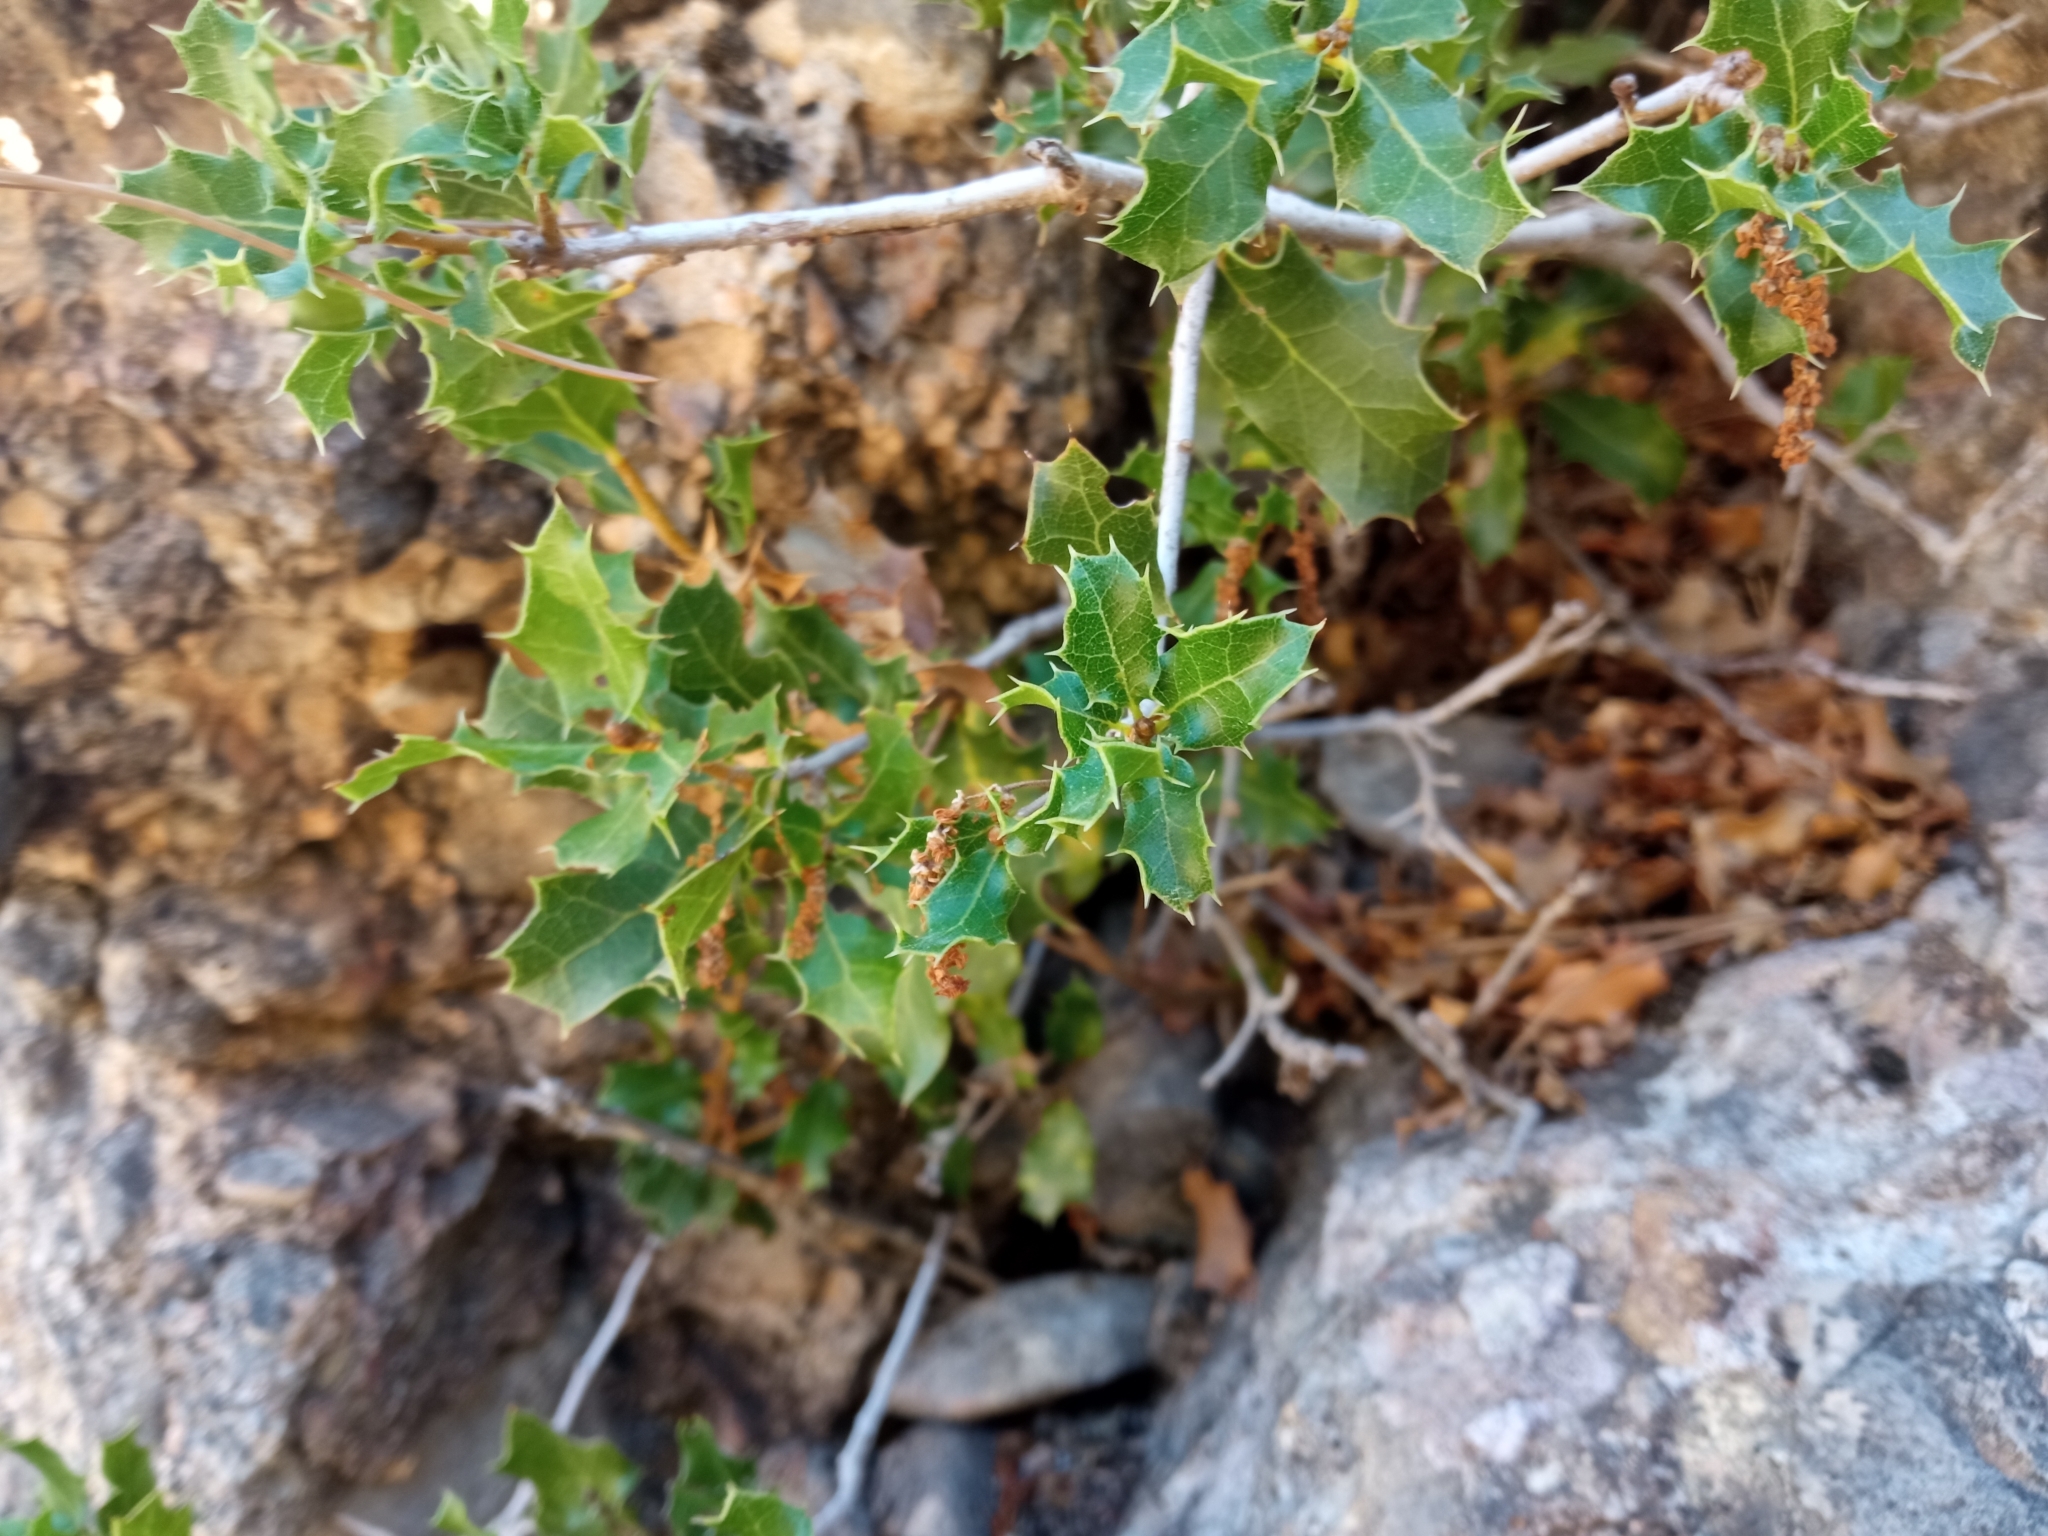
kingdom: Plantae
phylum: Tracheophyta
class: Magnoliopsida
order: Fagales
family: Fagaceae
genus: Quercus
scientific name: Quercus coccifera
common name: Kermes oak
